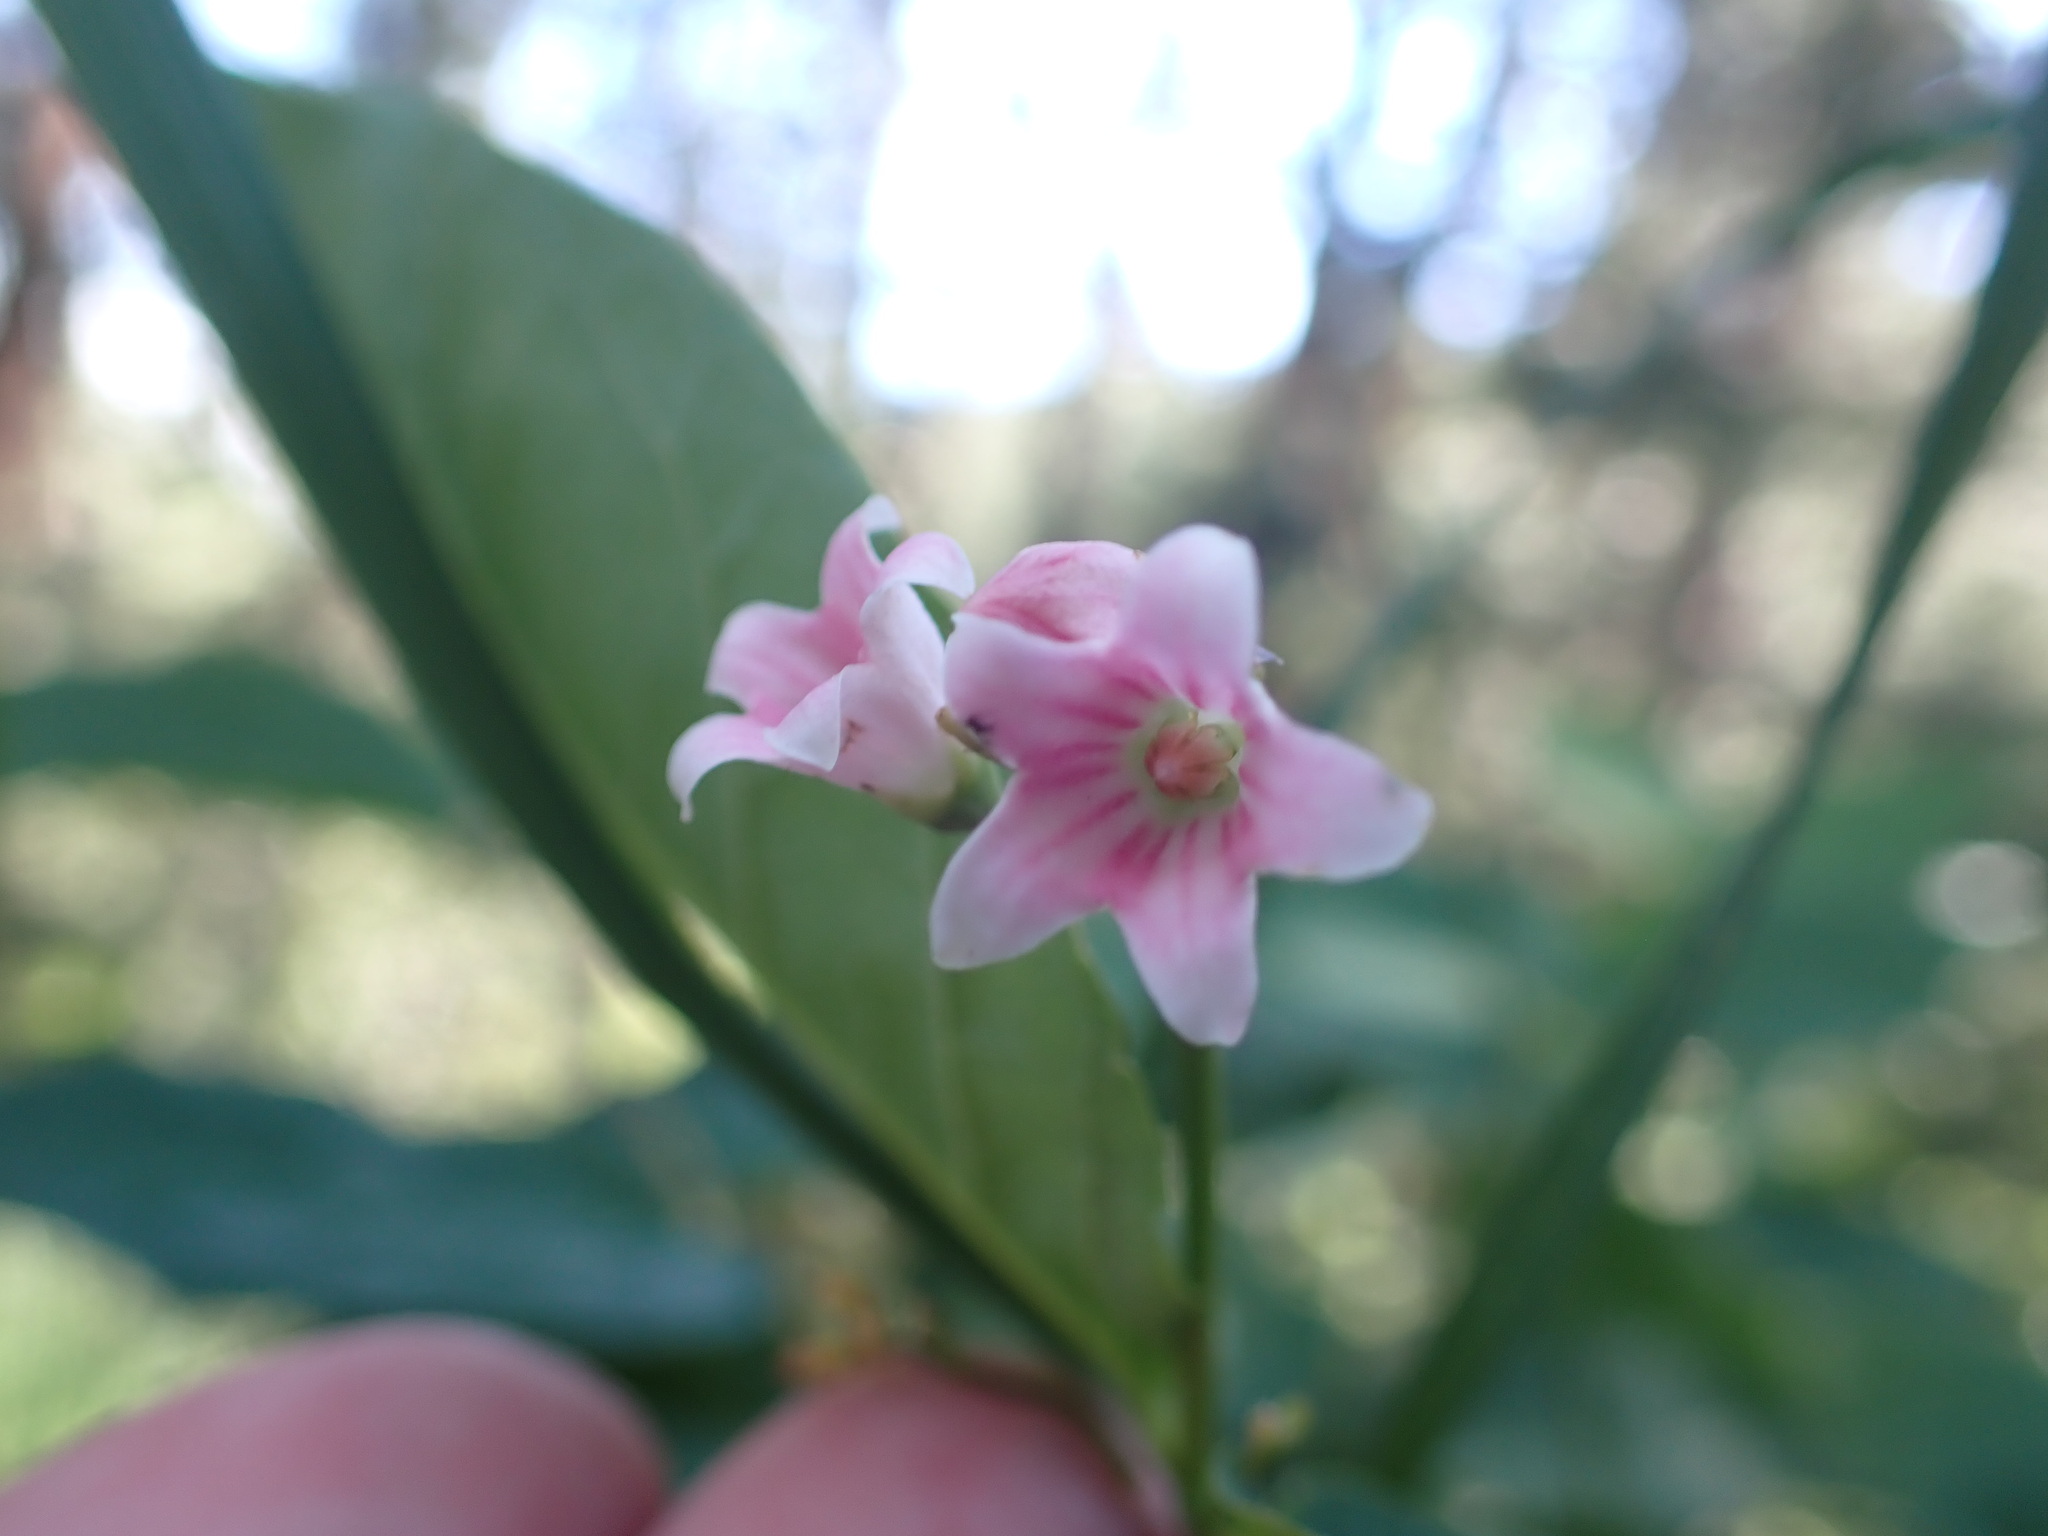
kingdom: Plantae
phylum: Tracheophyta
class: Magnoliopsida
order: Gentianales
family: Apocynaceae
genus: Apocynum
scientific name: Apocynum androsaemifolium
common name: Spreading dogbane
